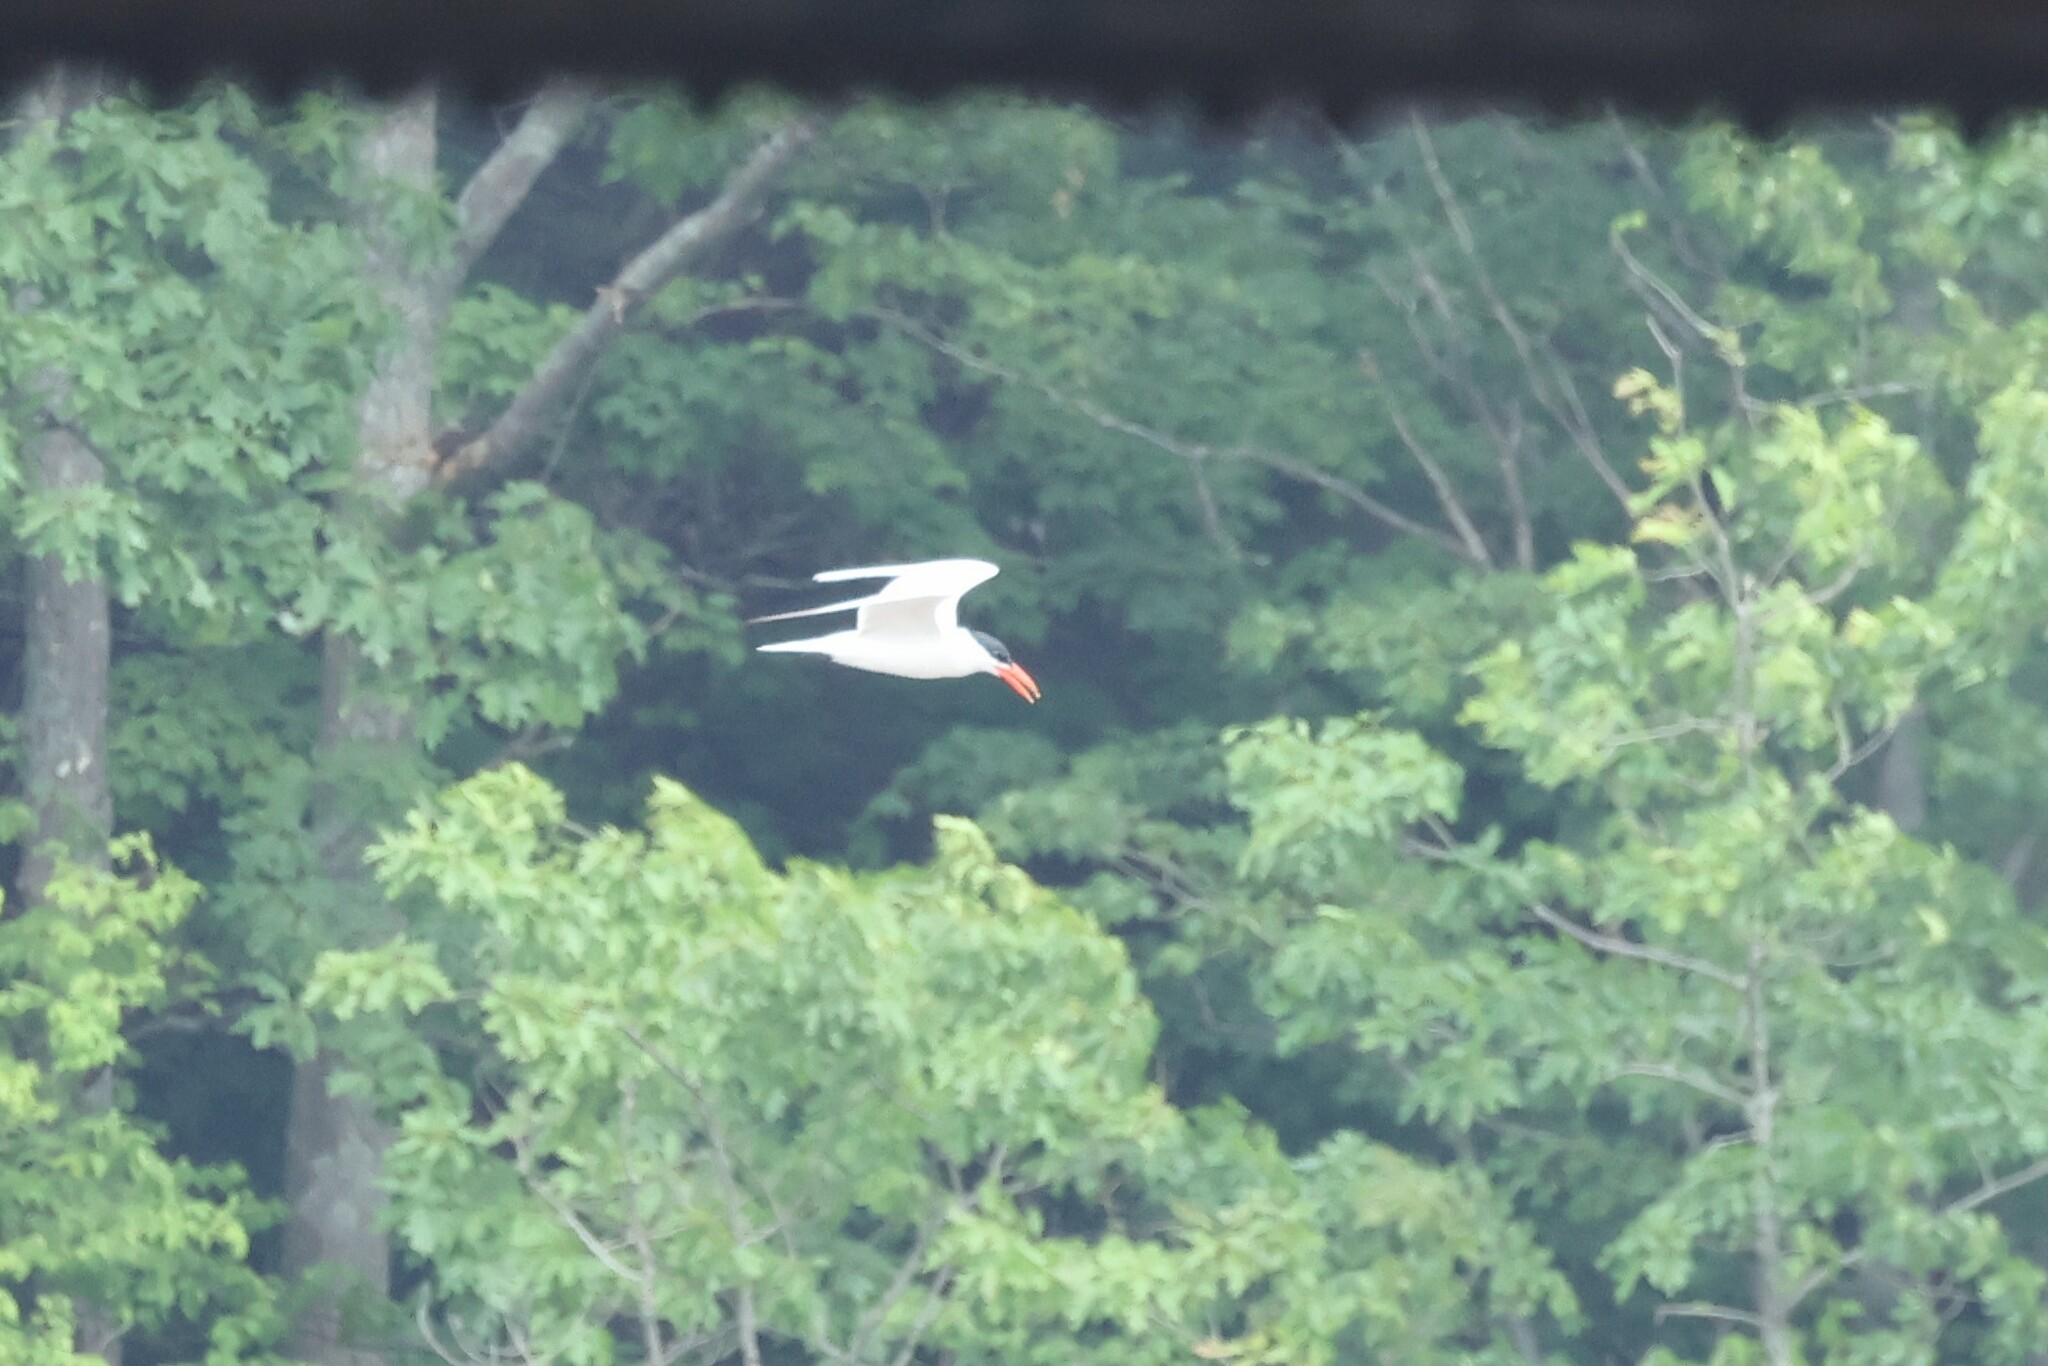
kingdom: Animalia
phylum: Chordata
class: Aves
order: Charadriiformes
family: Laridae
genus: Hydroprogne
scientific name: Hydroprogne caspia
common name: Caspian tern
